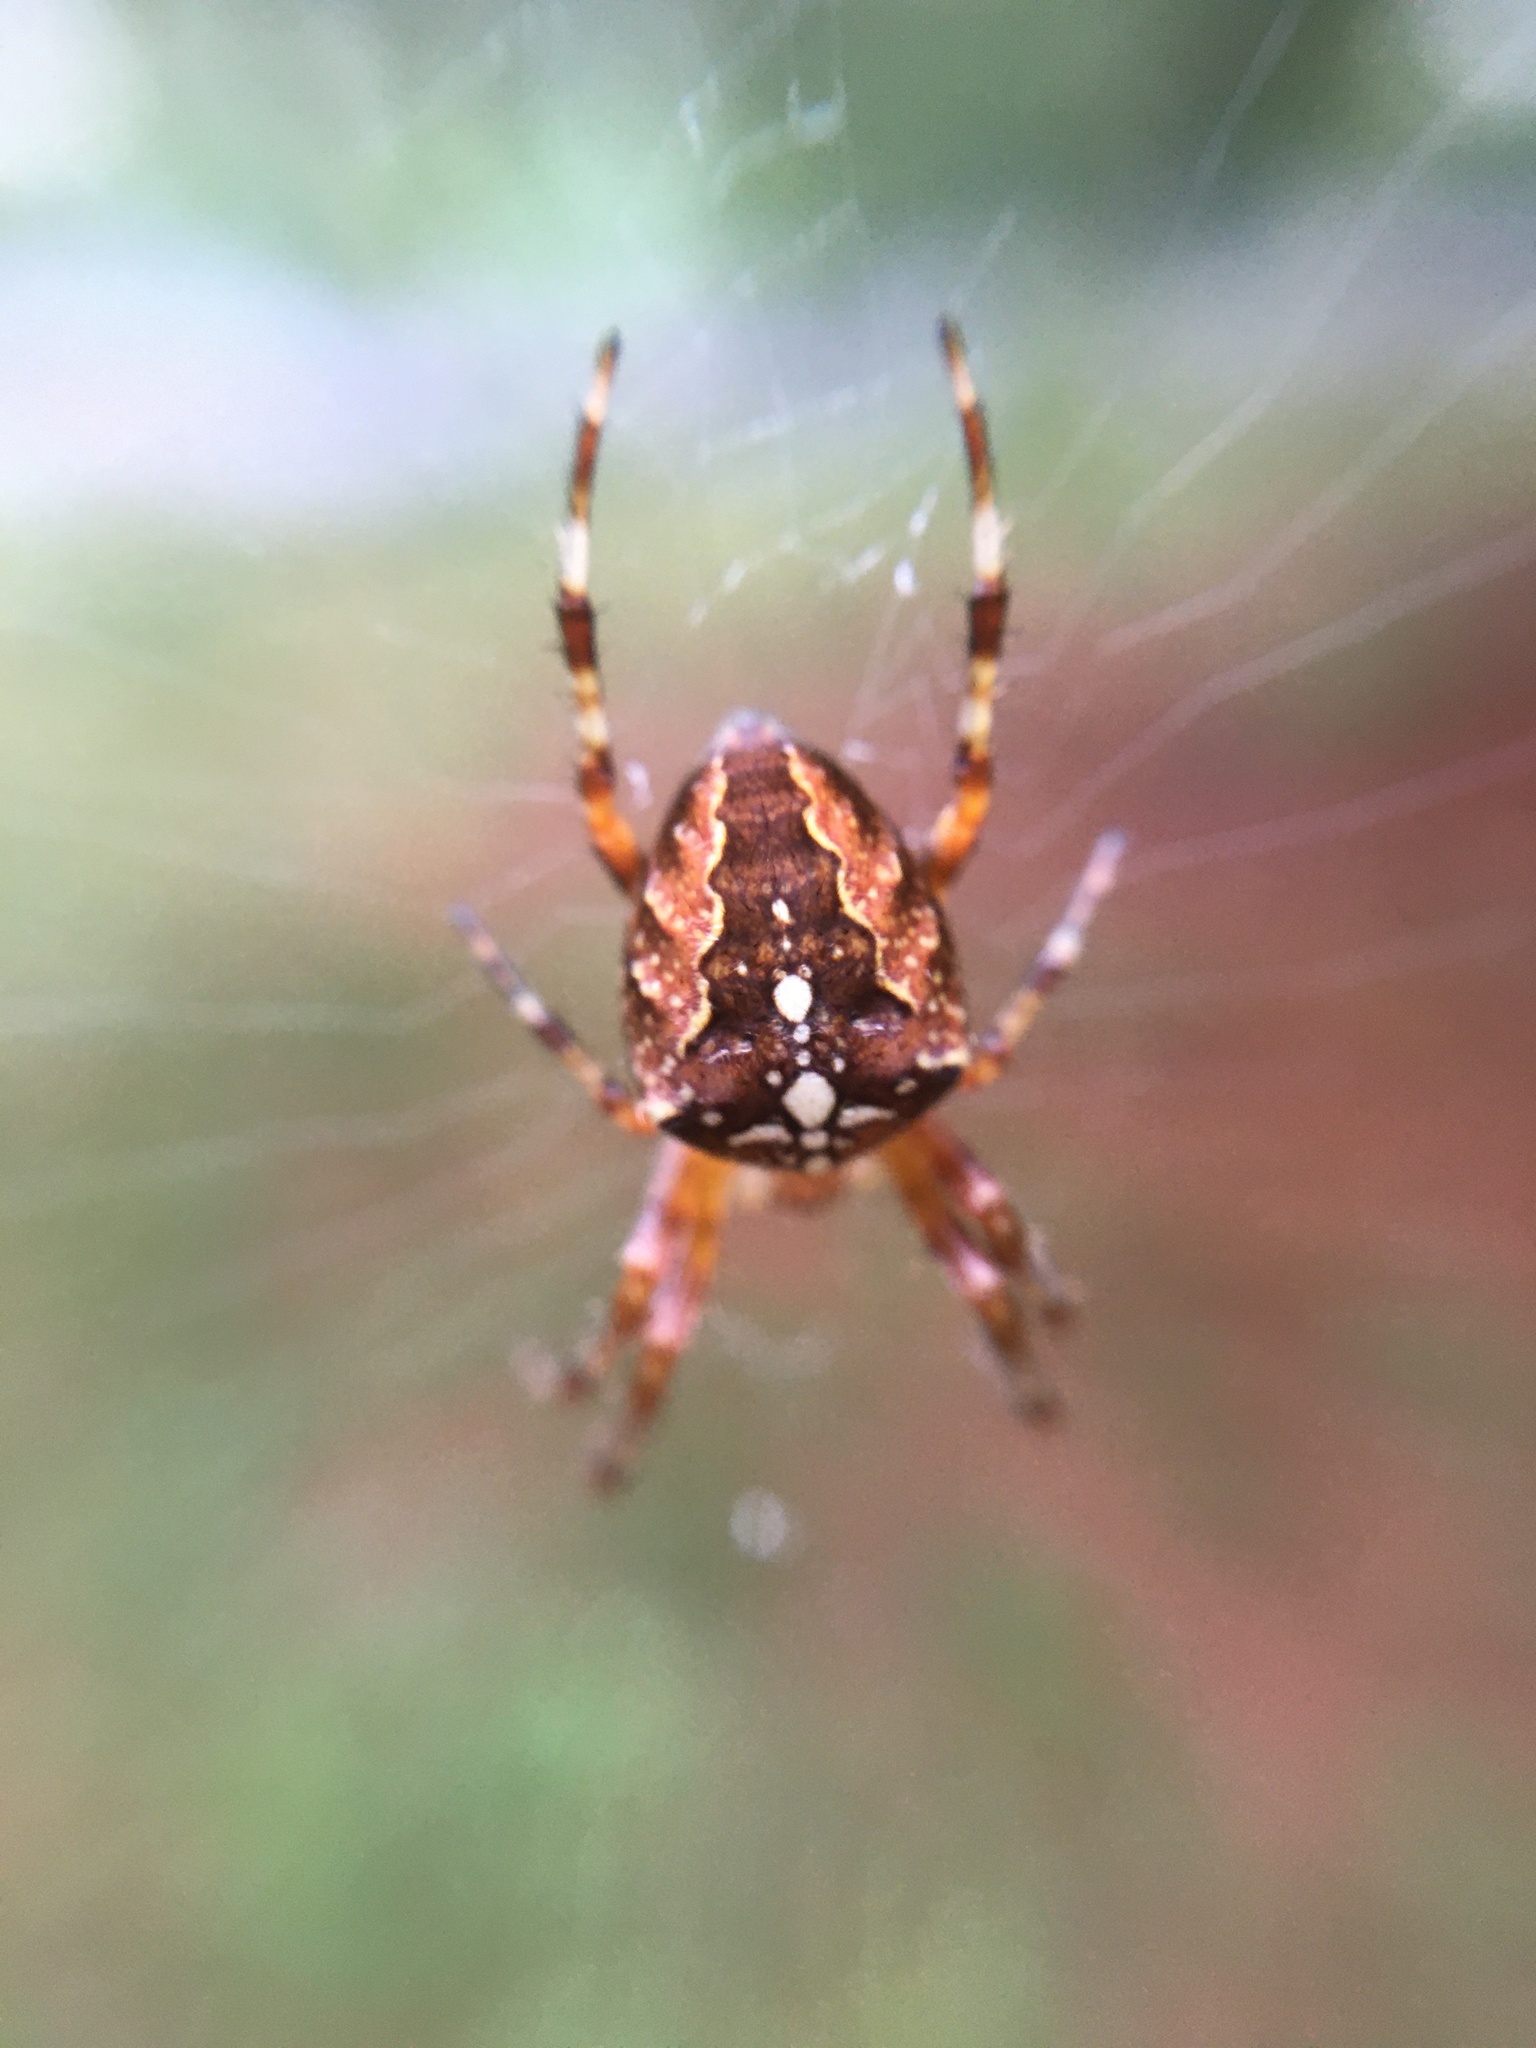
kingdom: Animalia
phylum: Arthropoda
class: Arachnida
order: Araneae
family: Araneidae
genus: Araneus
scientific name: Araneus diadematus
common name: Cross orbweaver
